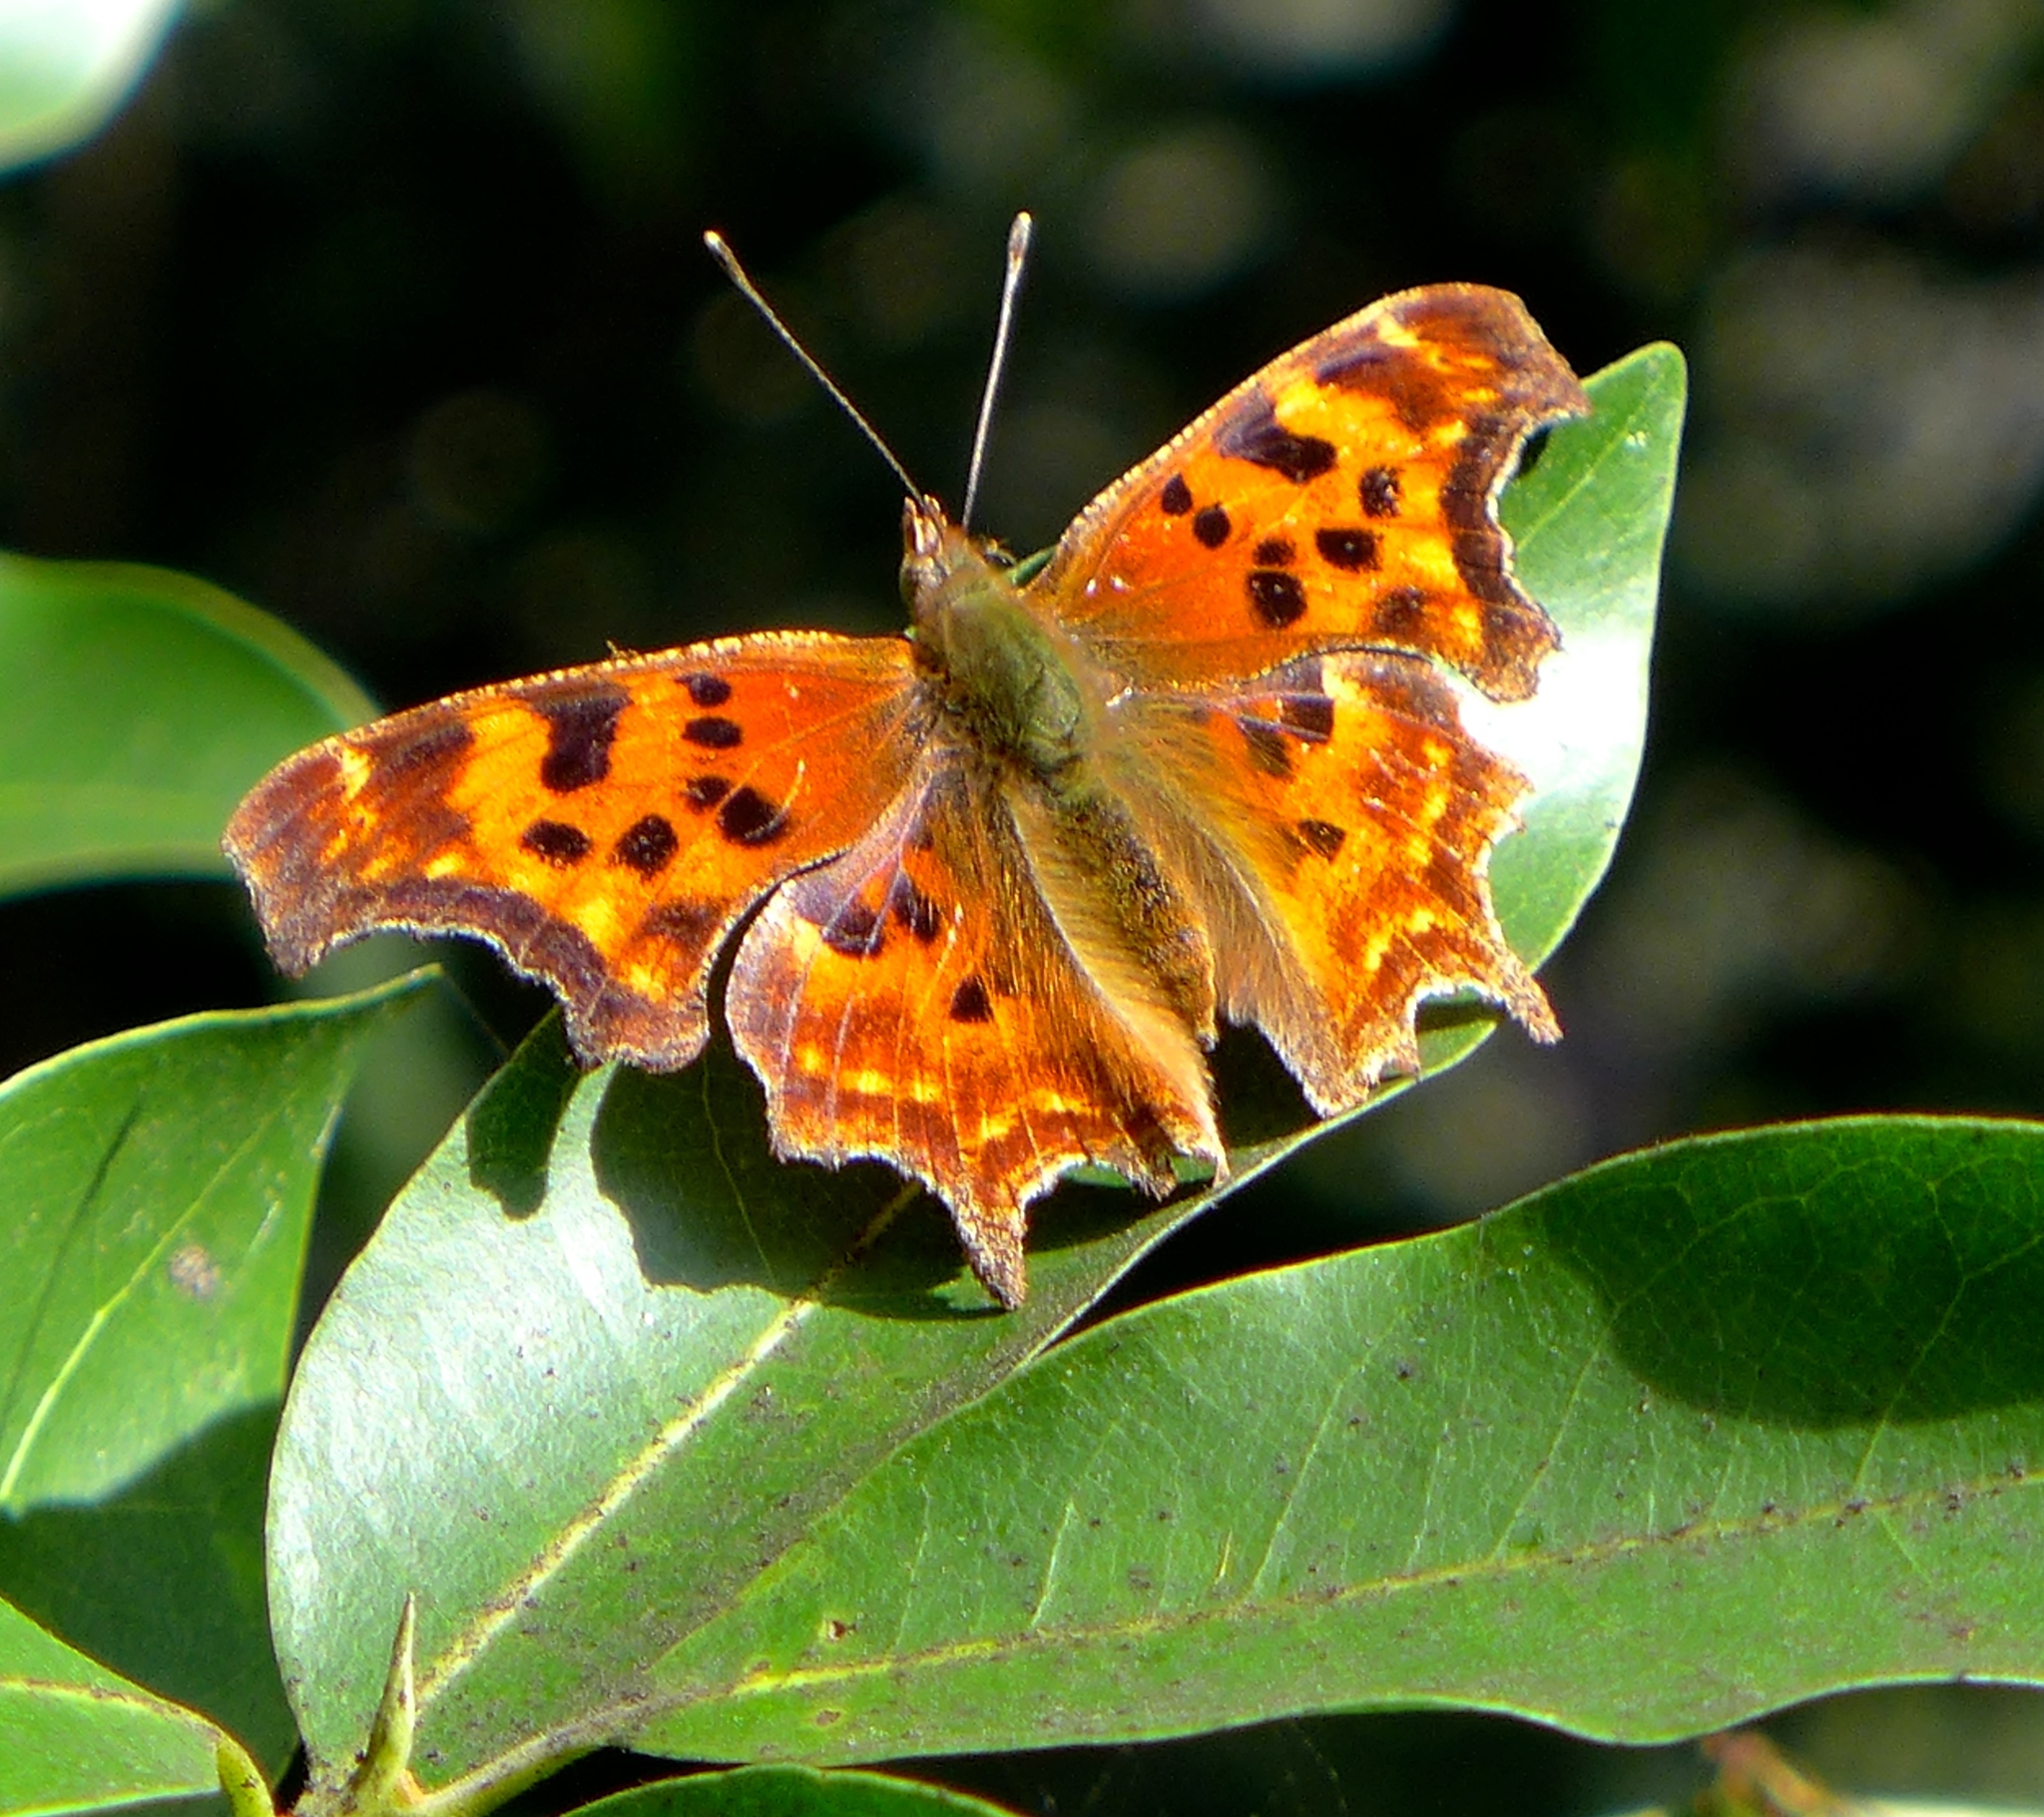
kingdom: Animalia
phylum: Arthropoda
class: Insecta
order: Lepidoptera
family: Nymphalidae
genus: Polygonia
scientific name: Polygonia satyrus
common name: Satyr angle wing
